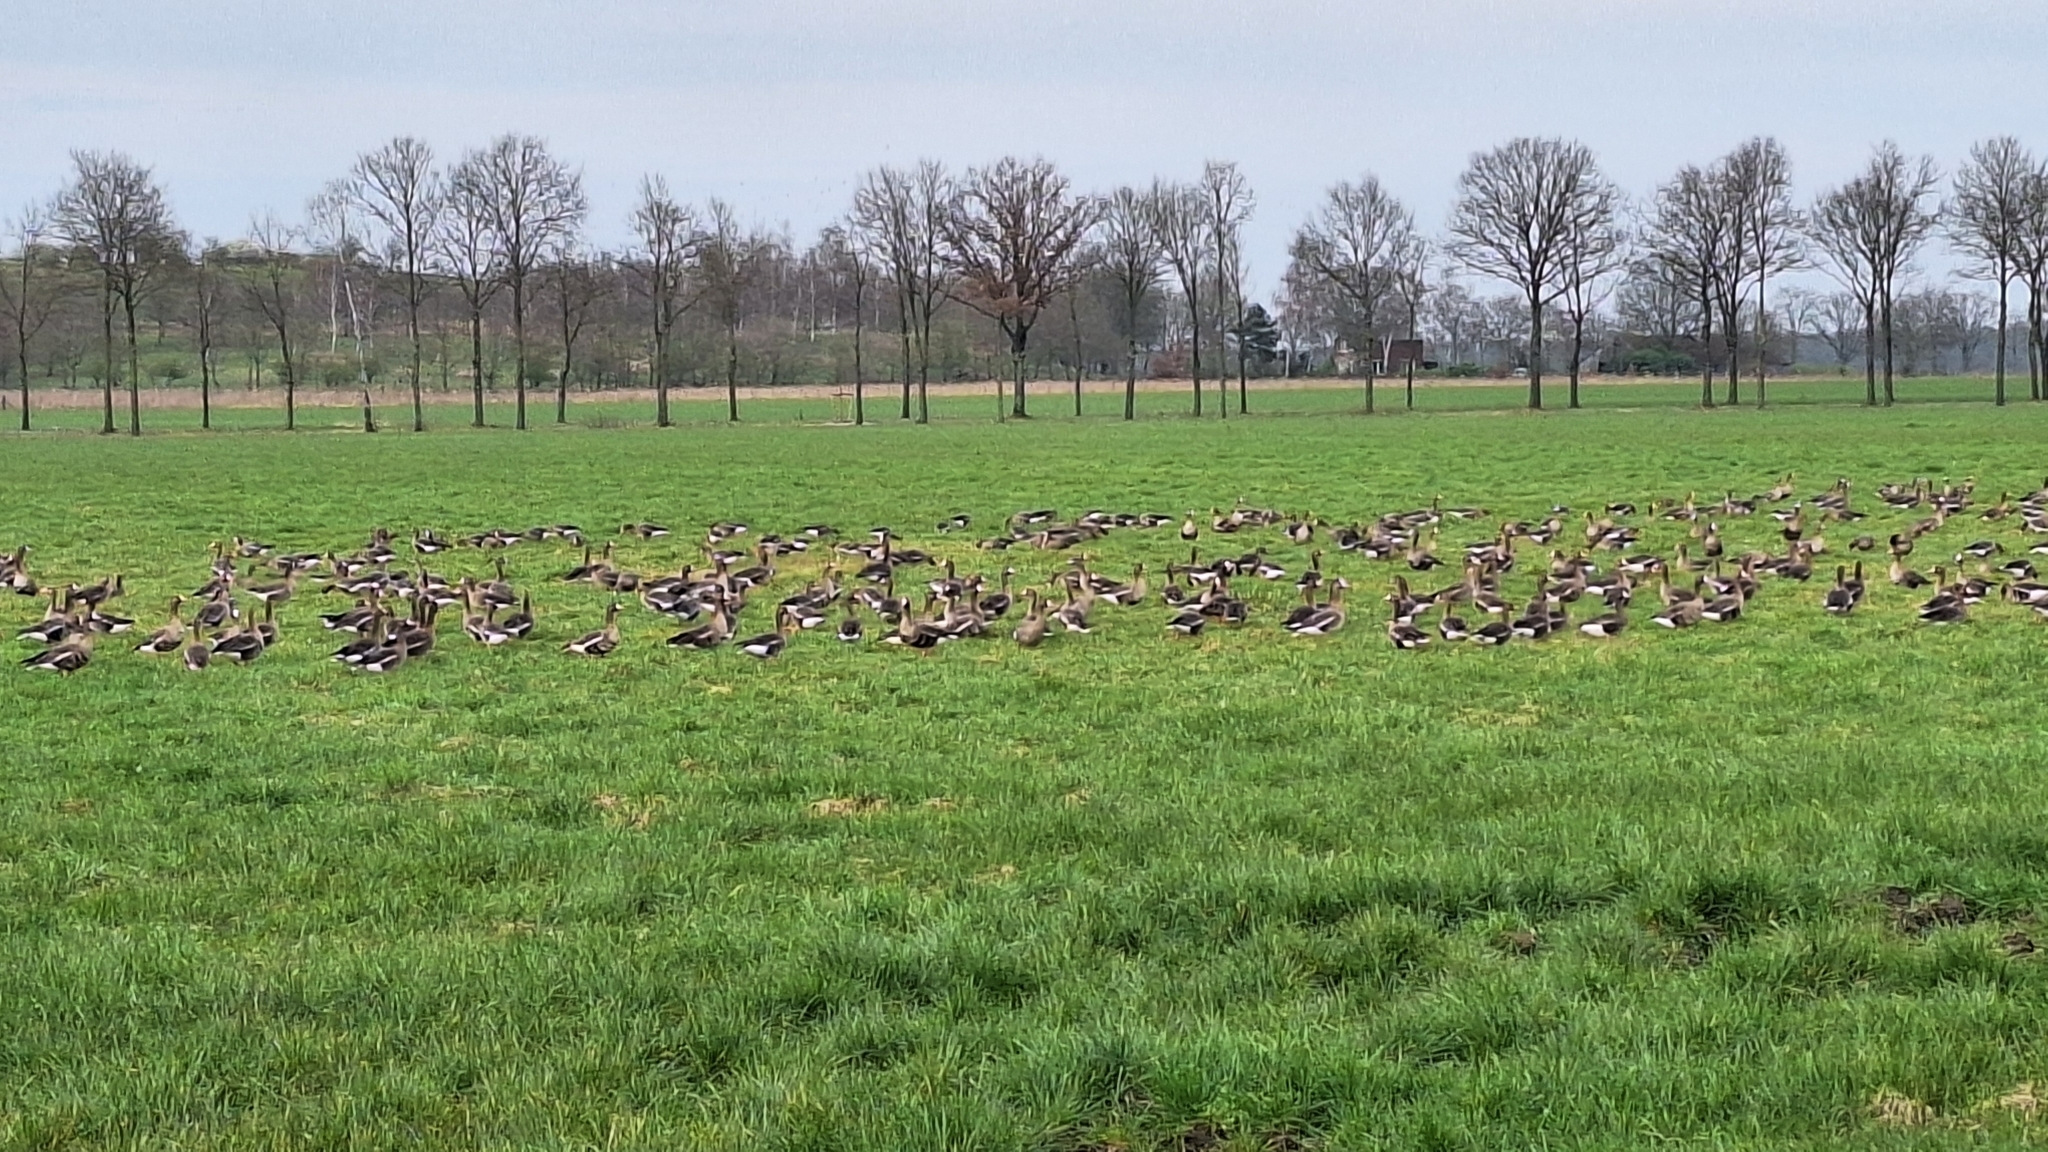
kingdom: Animalia
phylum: Chordata
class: Aves
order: Anseriformes
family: Anatidae
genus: Anser
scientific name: Anser albifrons
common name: Greater white-fronted goose
